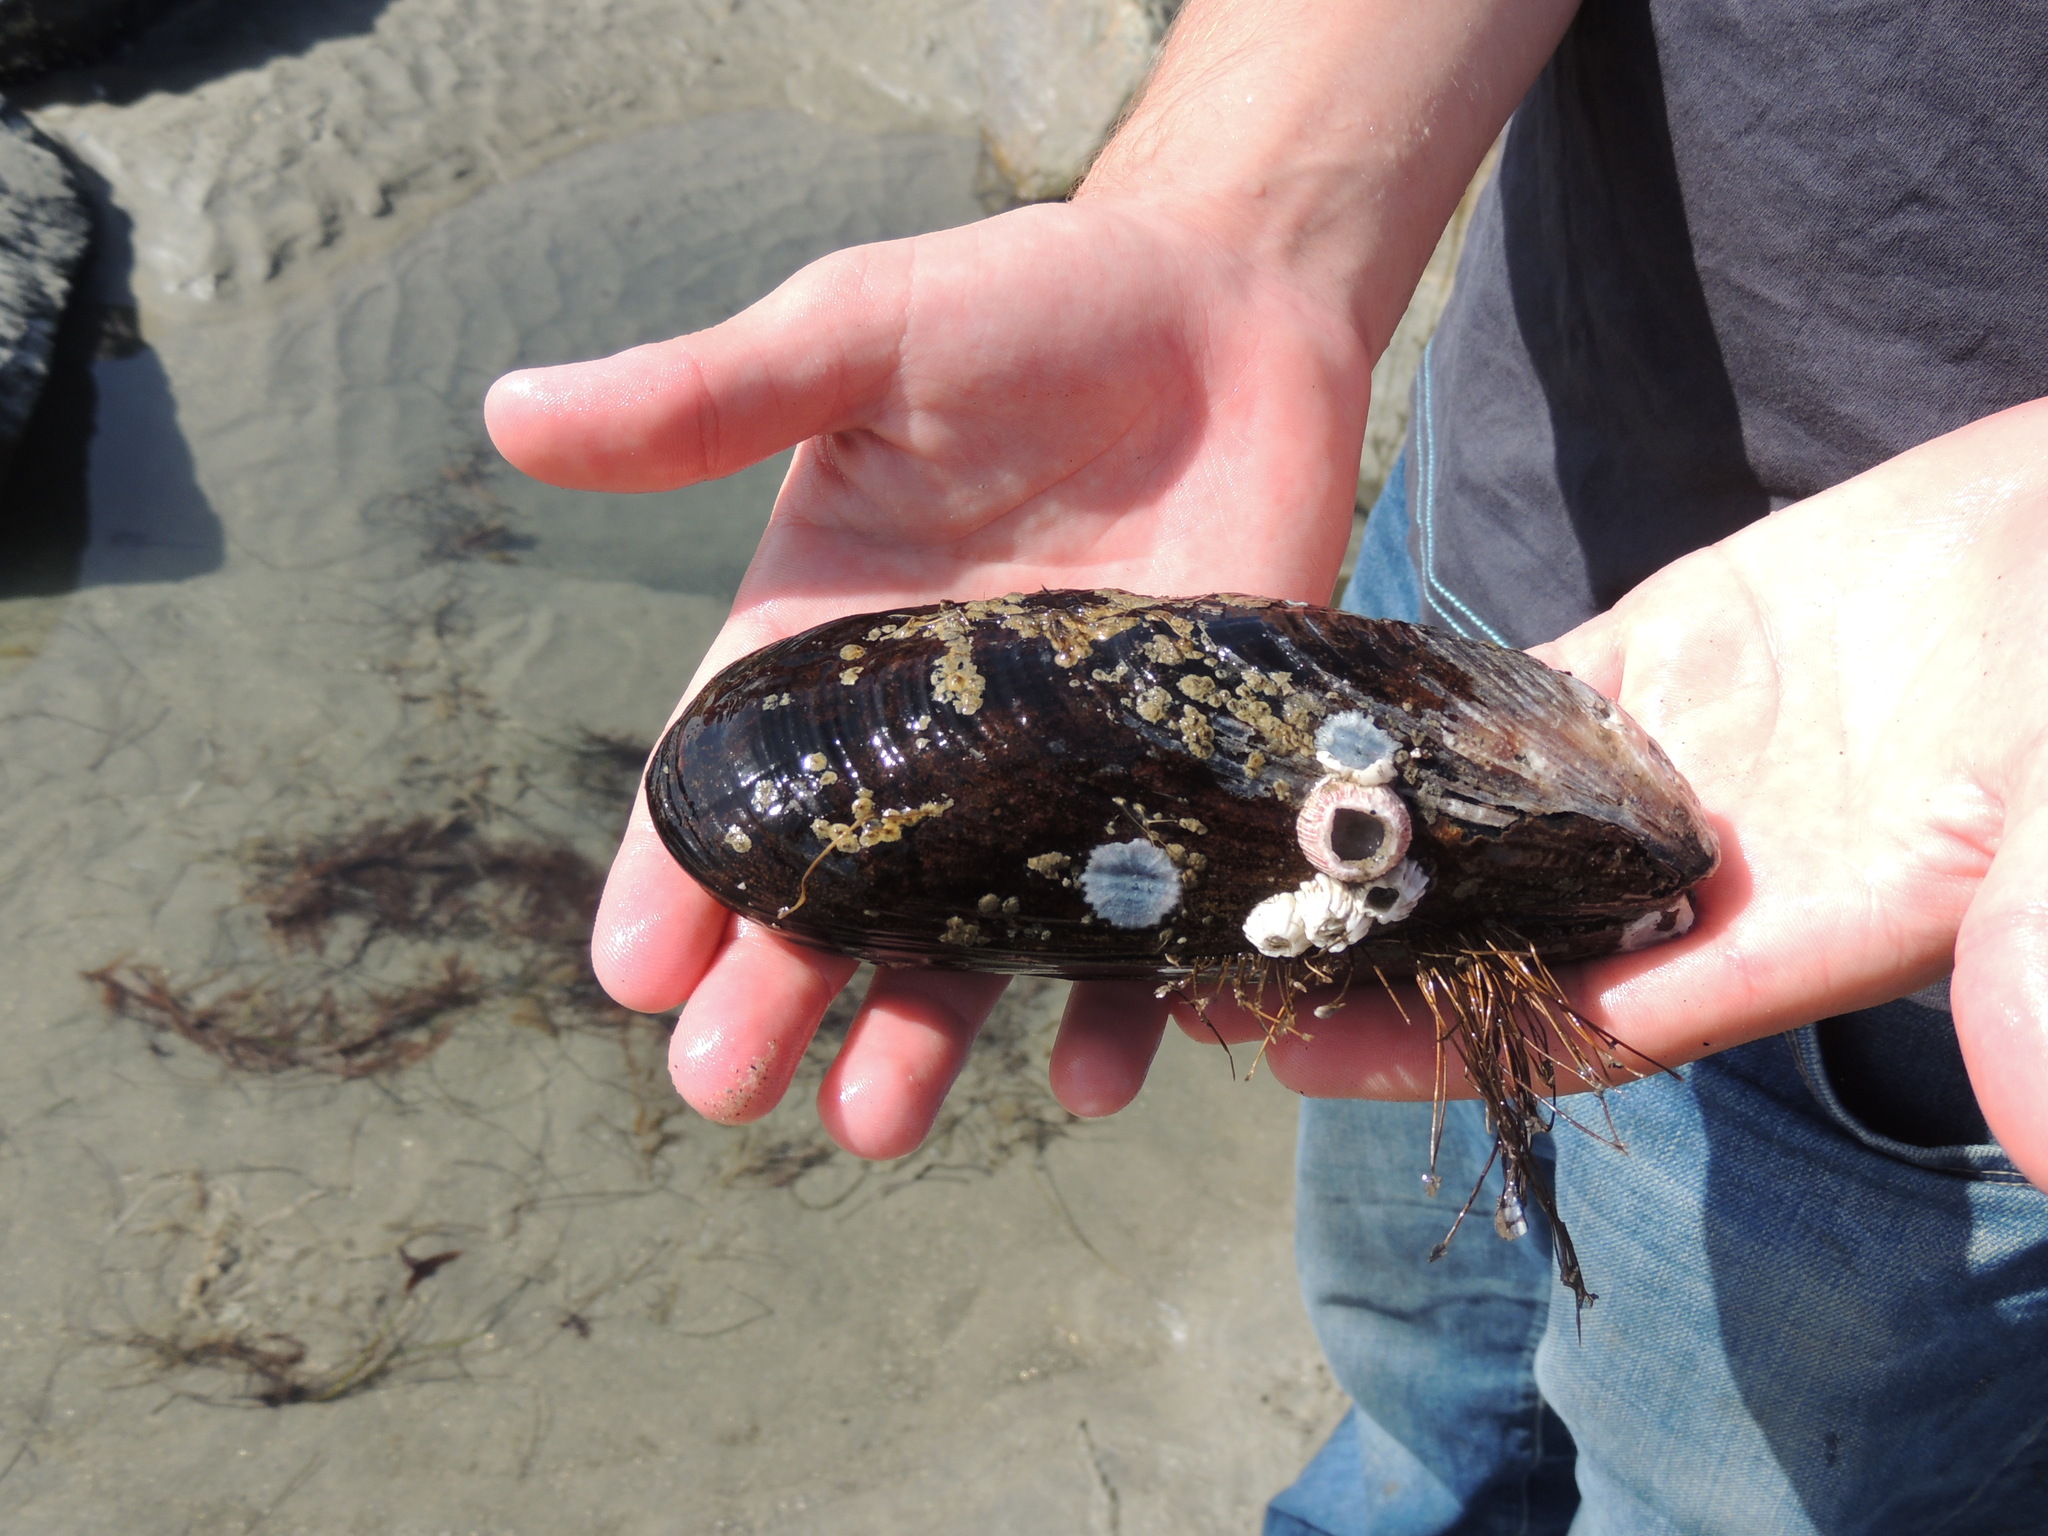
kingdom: Animalia
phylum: Mollusca
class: Bivalvia
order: Mytilida
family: Mytilidae
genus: Mytilus
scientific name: Mytilus californianus
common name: California mussel
